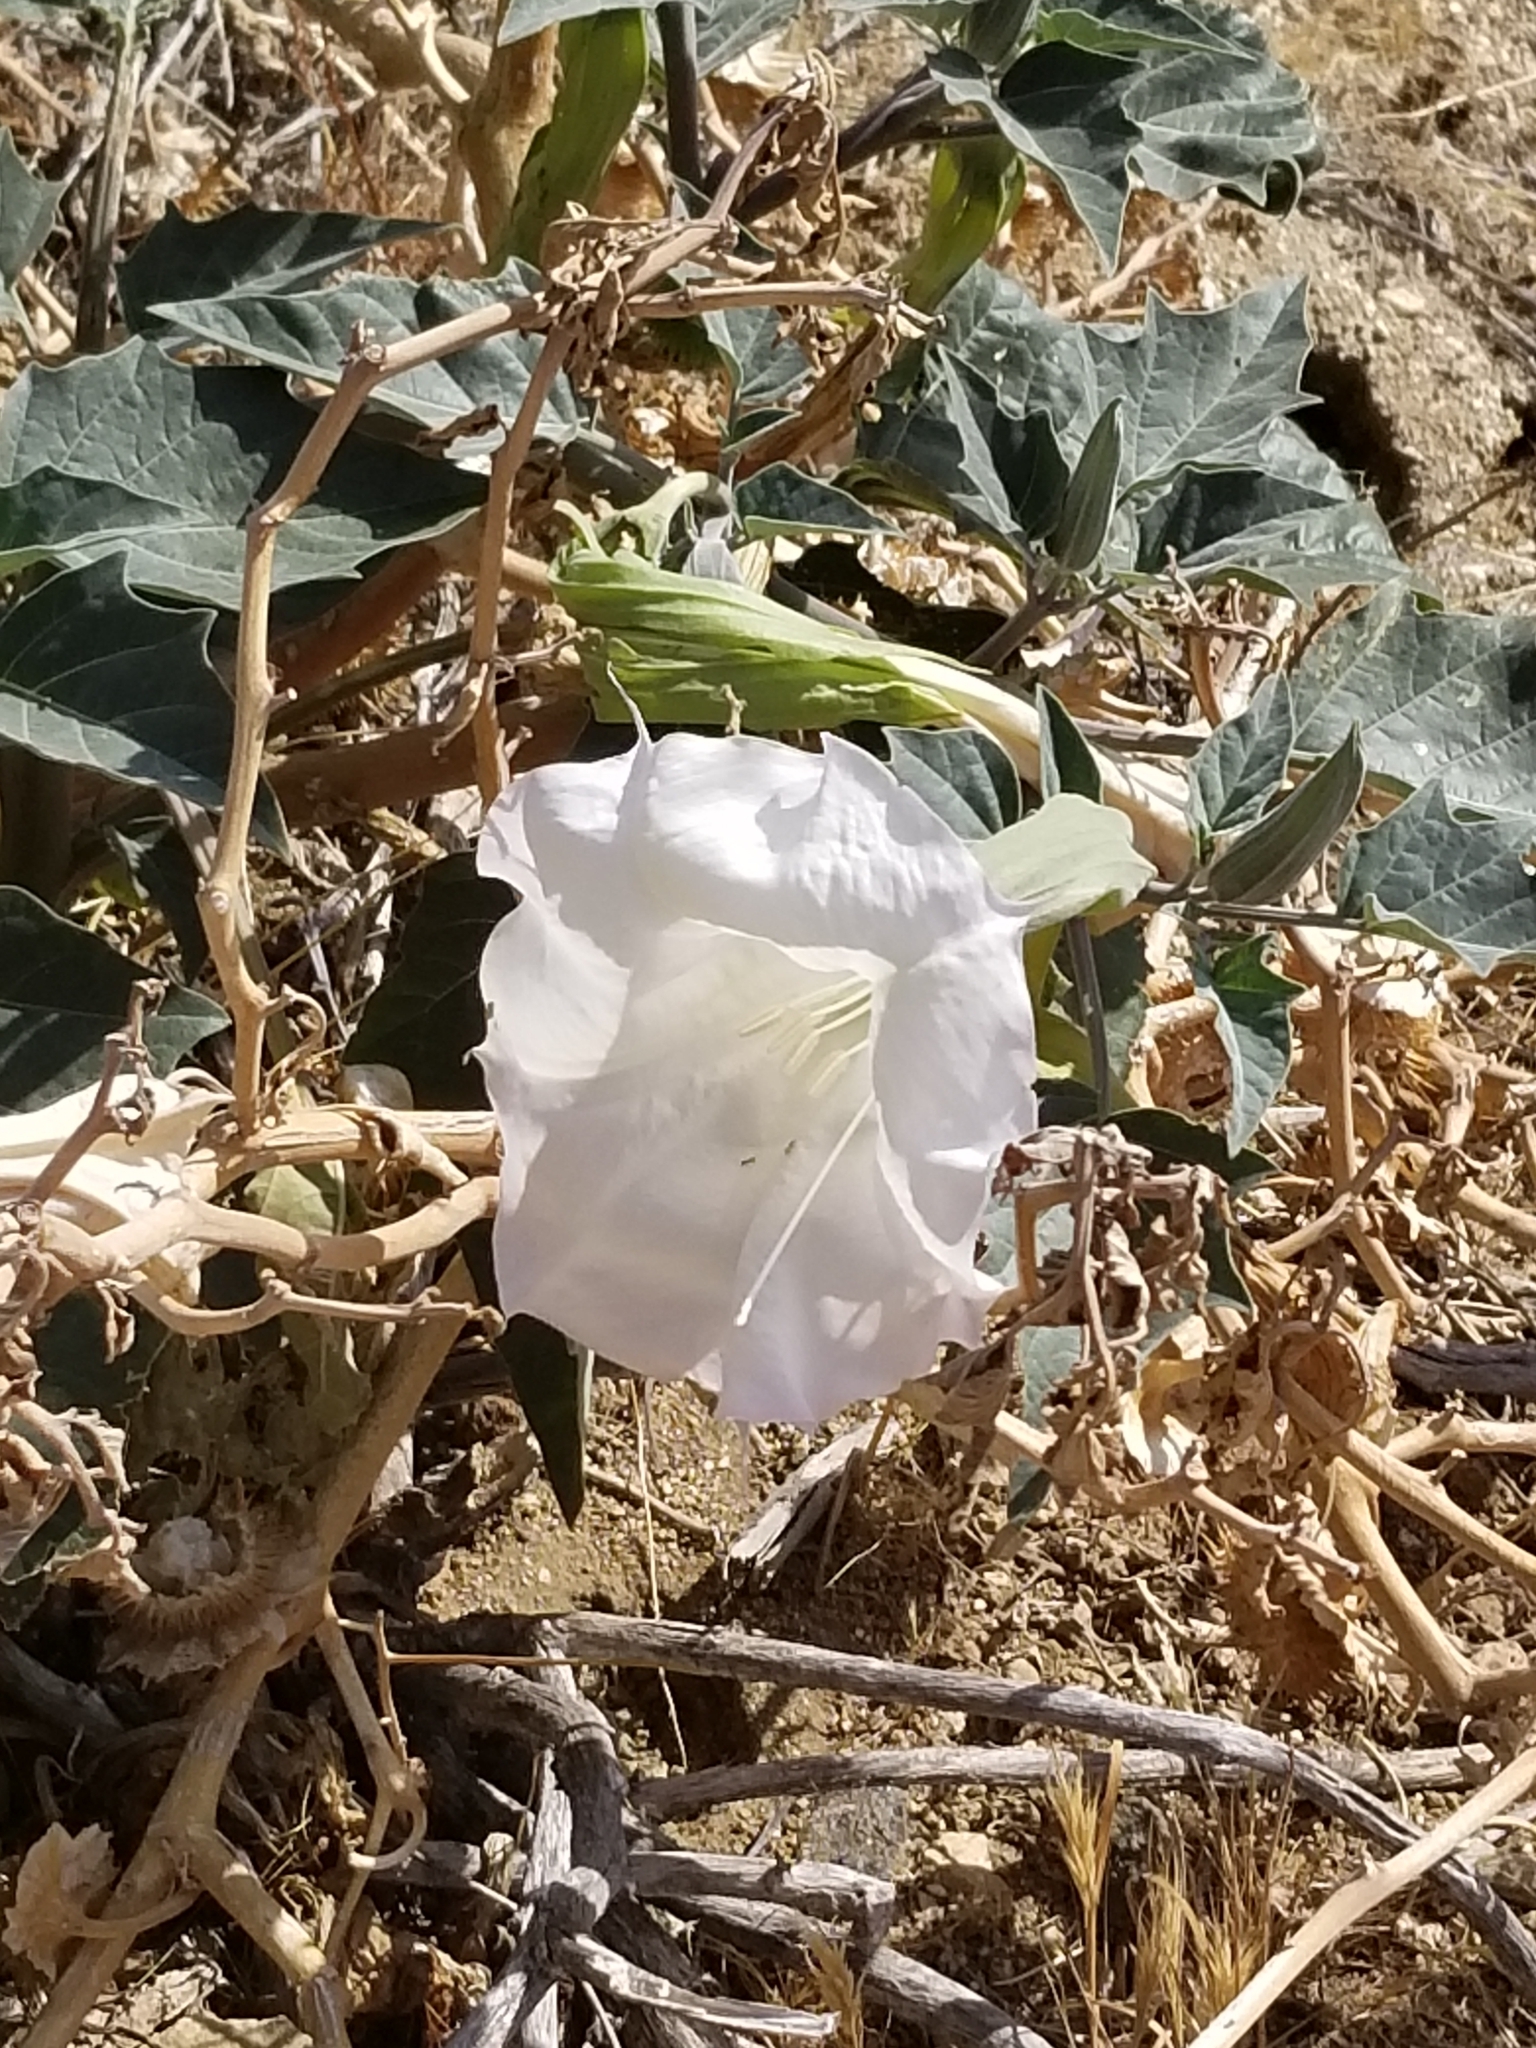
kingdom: Plantae
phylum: Tracheophyta
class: Magnoliopsida
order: Solanales
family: Solanaceae
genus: Datura
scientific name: Datura wrightii
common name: Sacred thorn-apple
